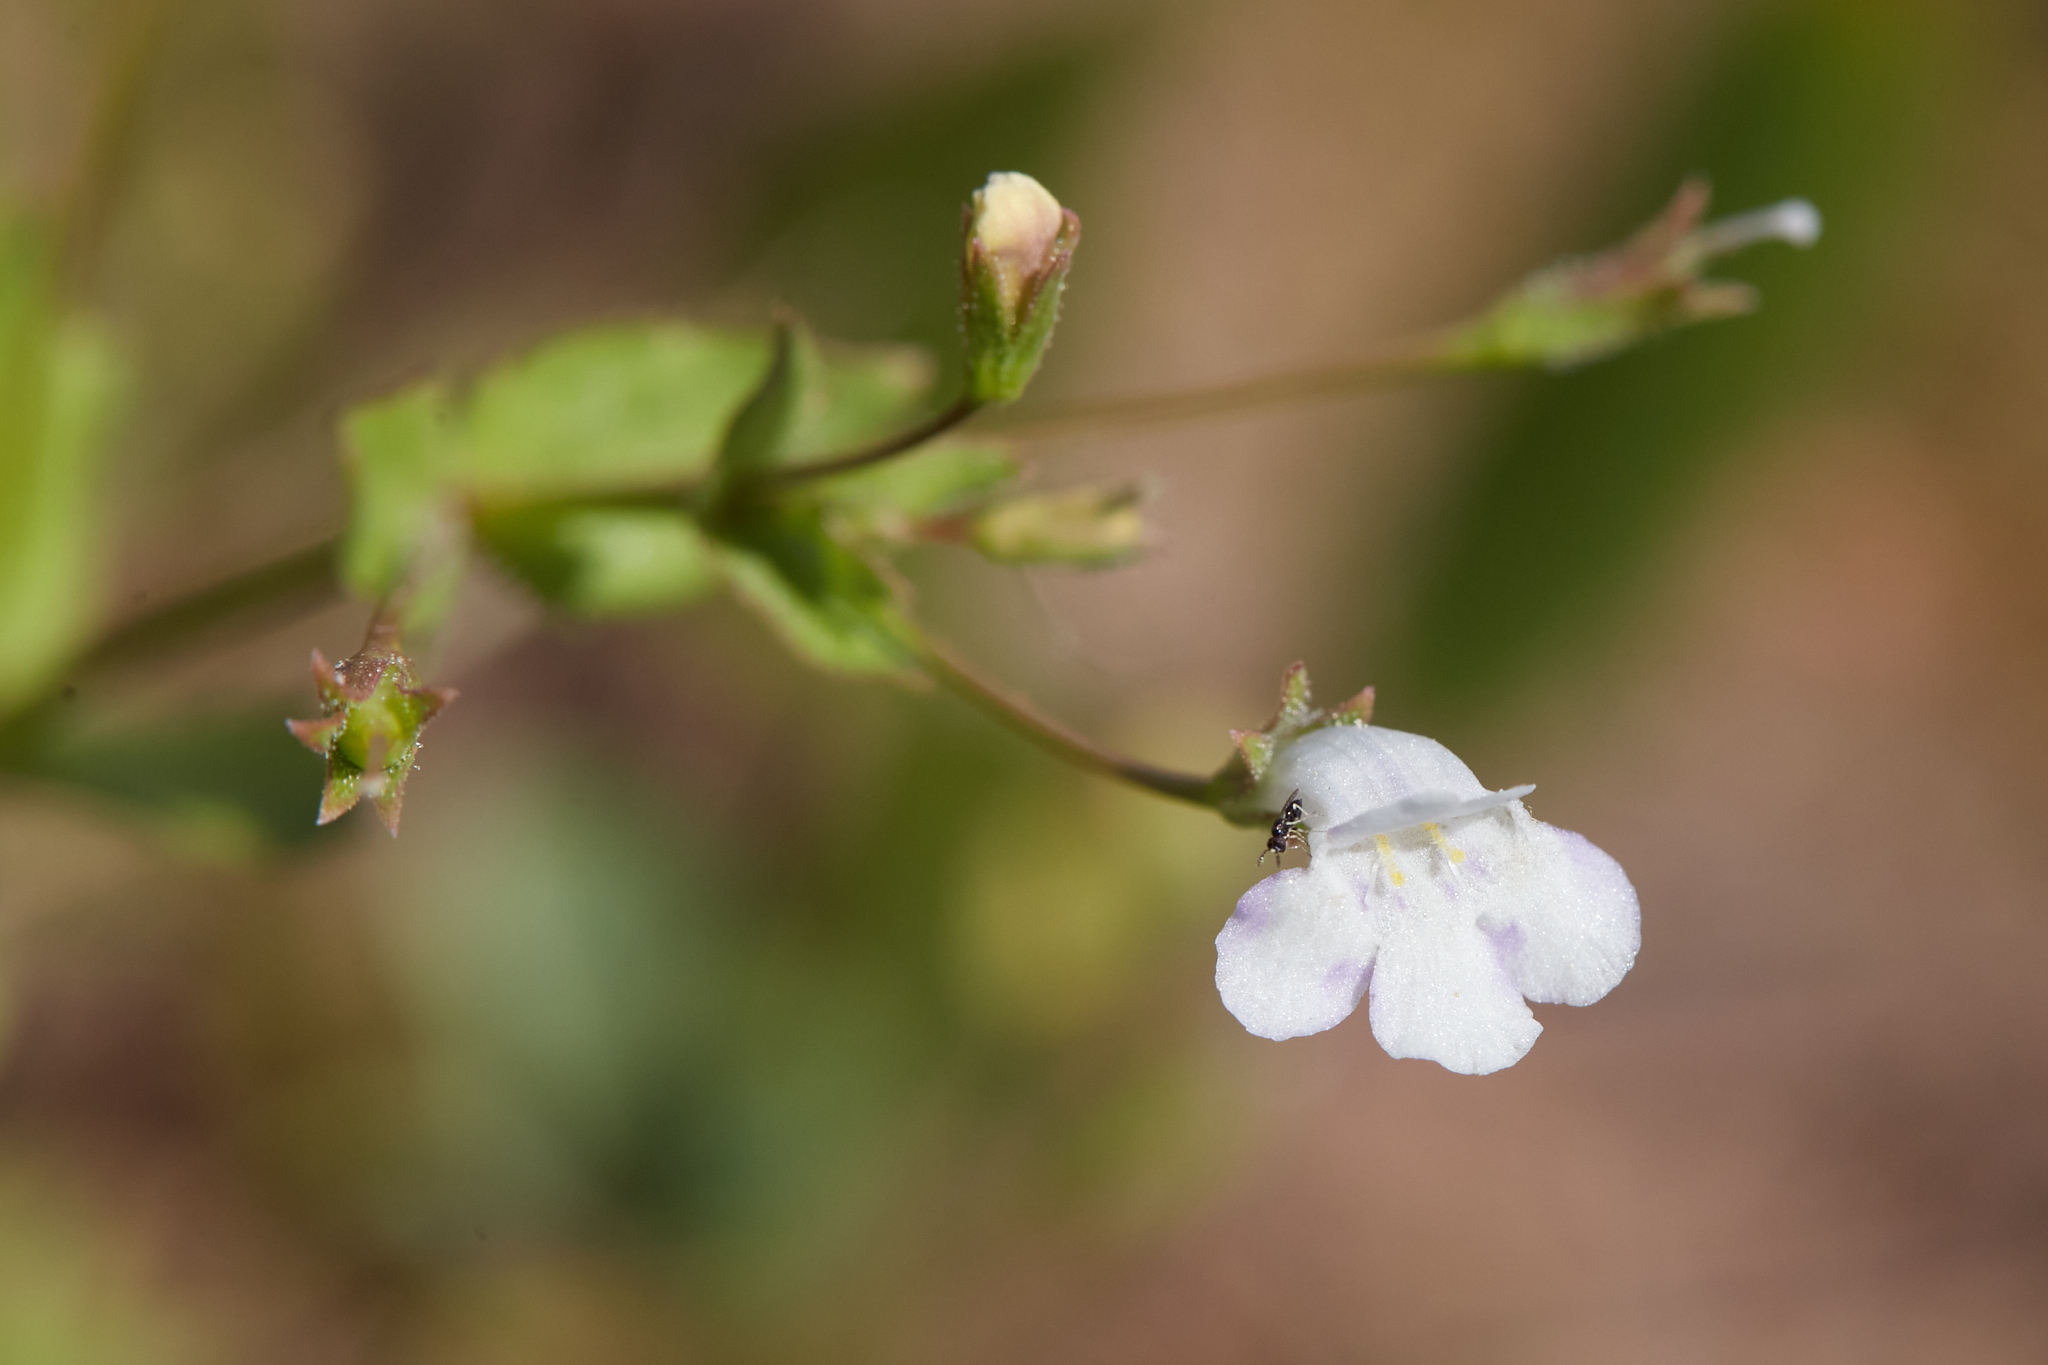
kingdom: Plantae
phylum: Tracheophyta
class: Magnoliopsida
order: Lamiales
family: Linderniaceae
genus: Lindernia
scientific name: Lindernia dubia
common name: Annual false pimpernel
